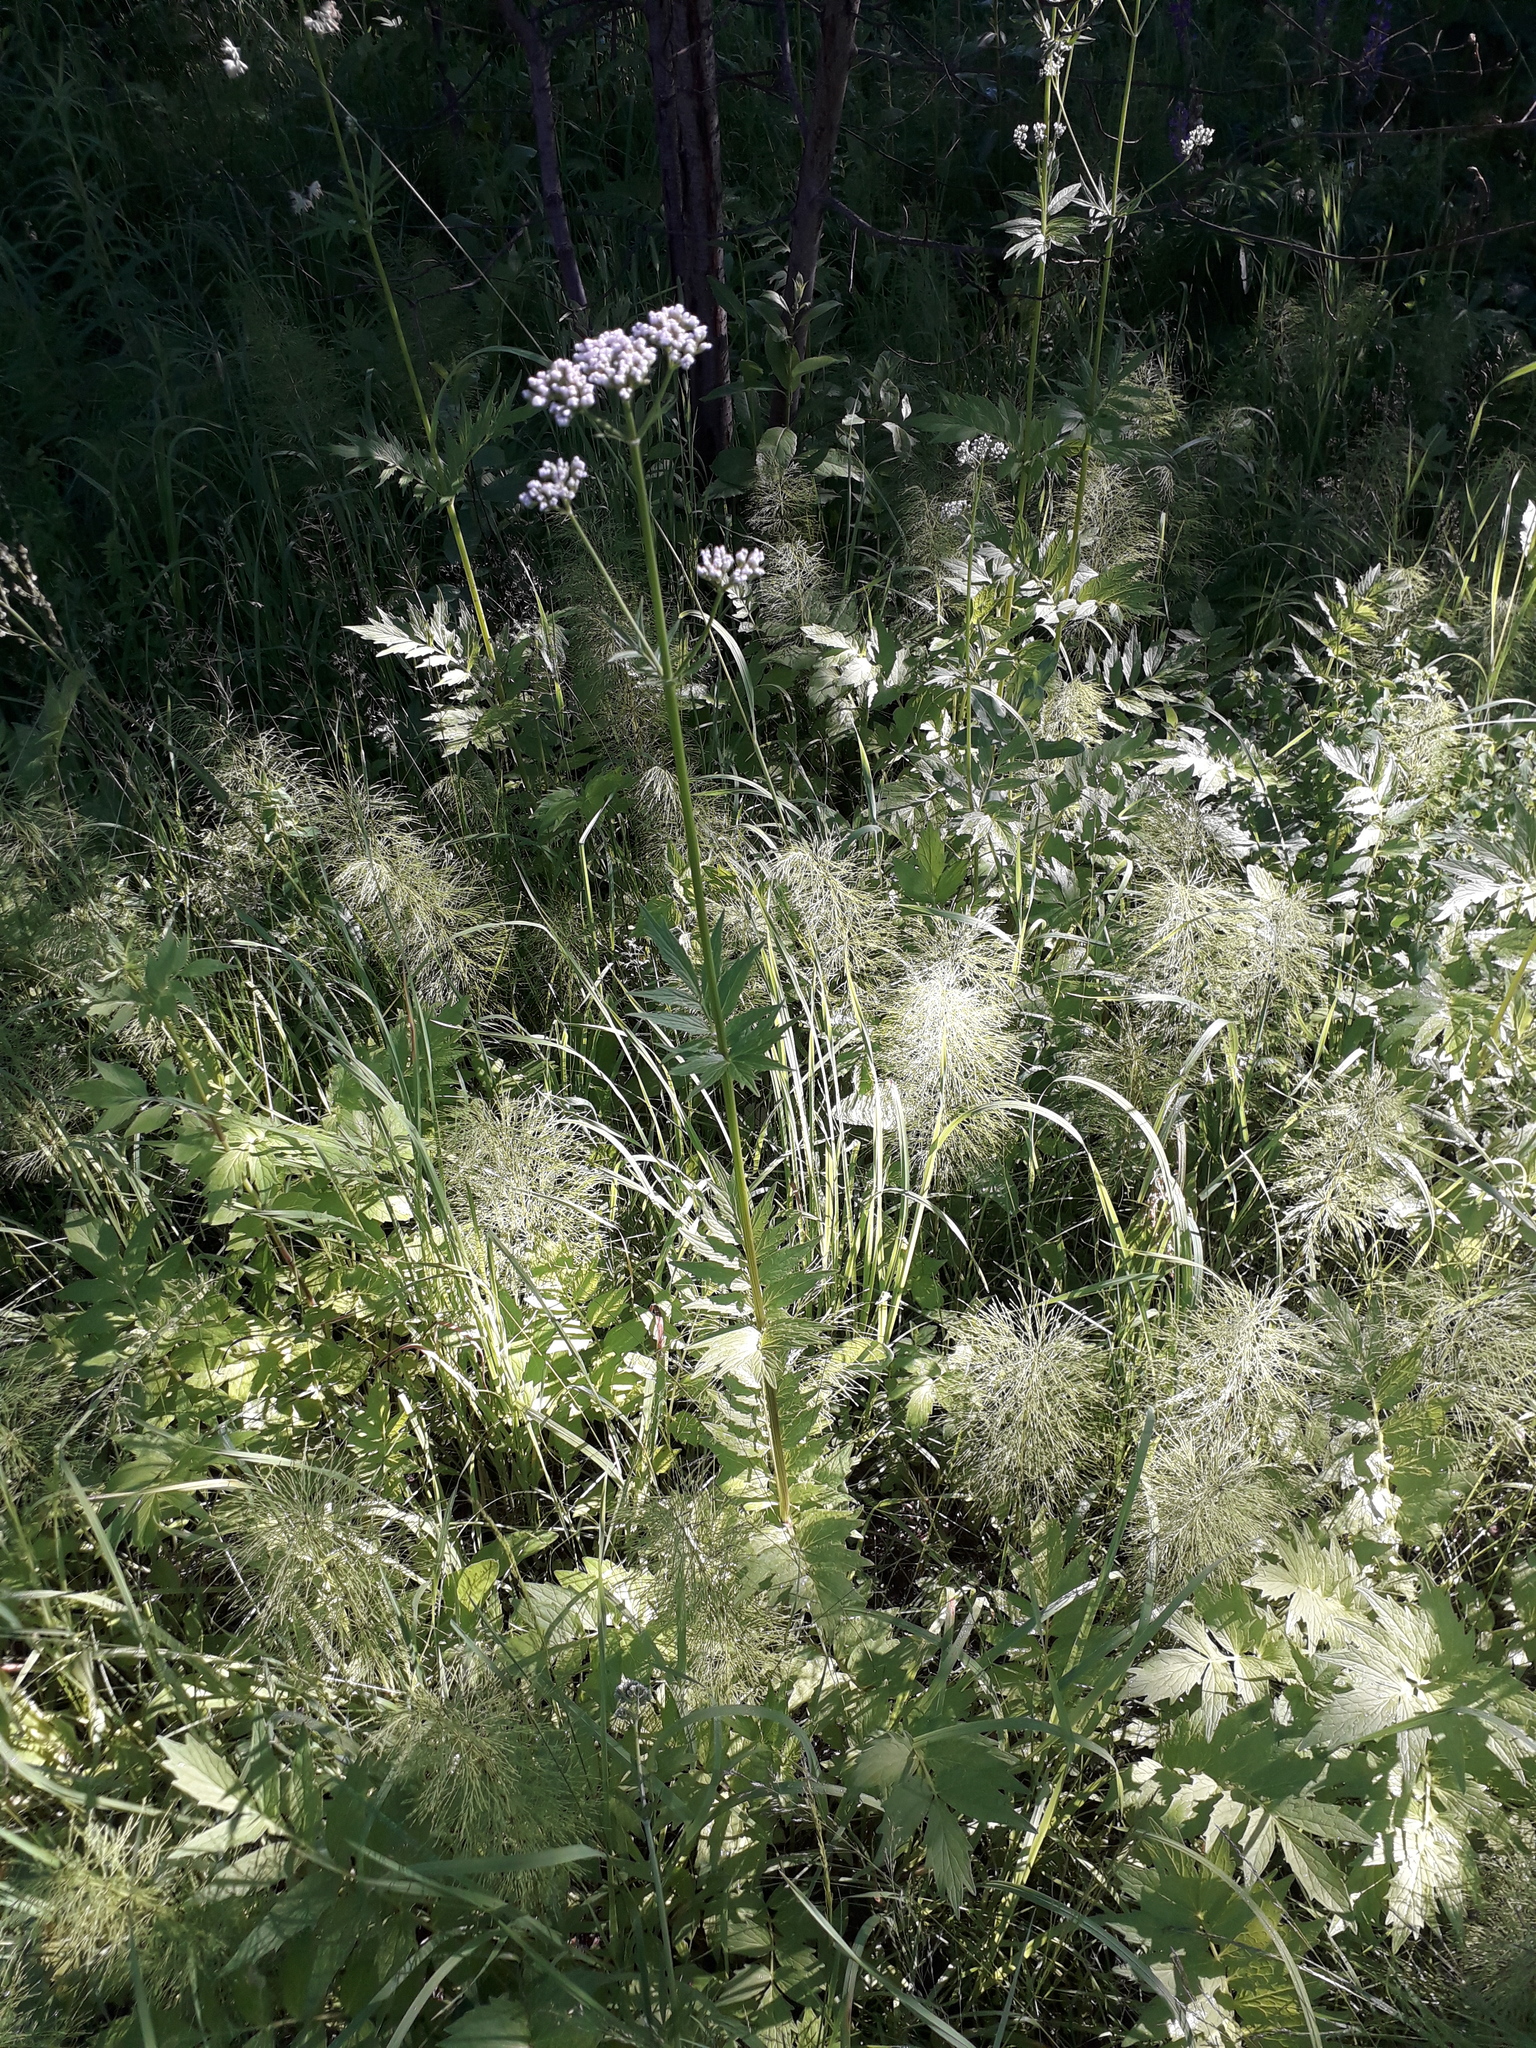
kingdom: Plantae
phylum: Tracheophyta
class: Magnoliopsida
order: Dipsacales
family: Caprifoliaceae
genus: Valeriana
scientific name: Valeriana officinalis
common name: Common valerian
